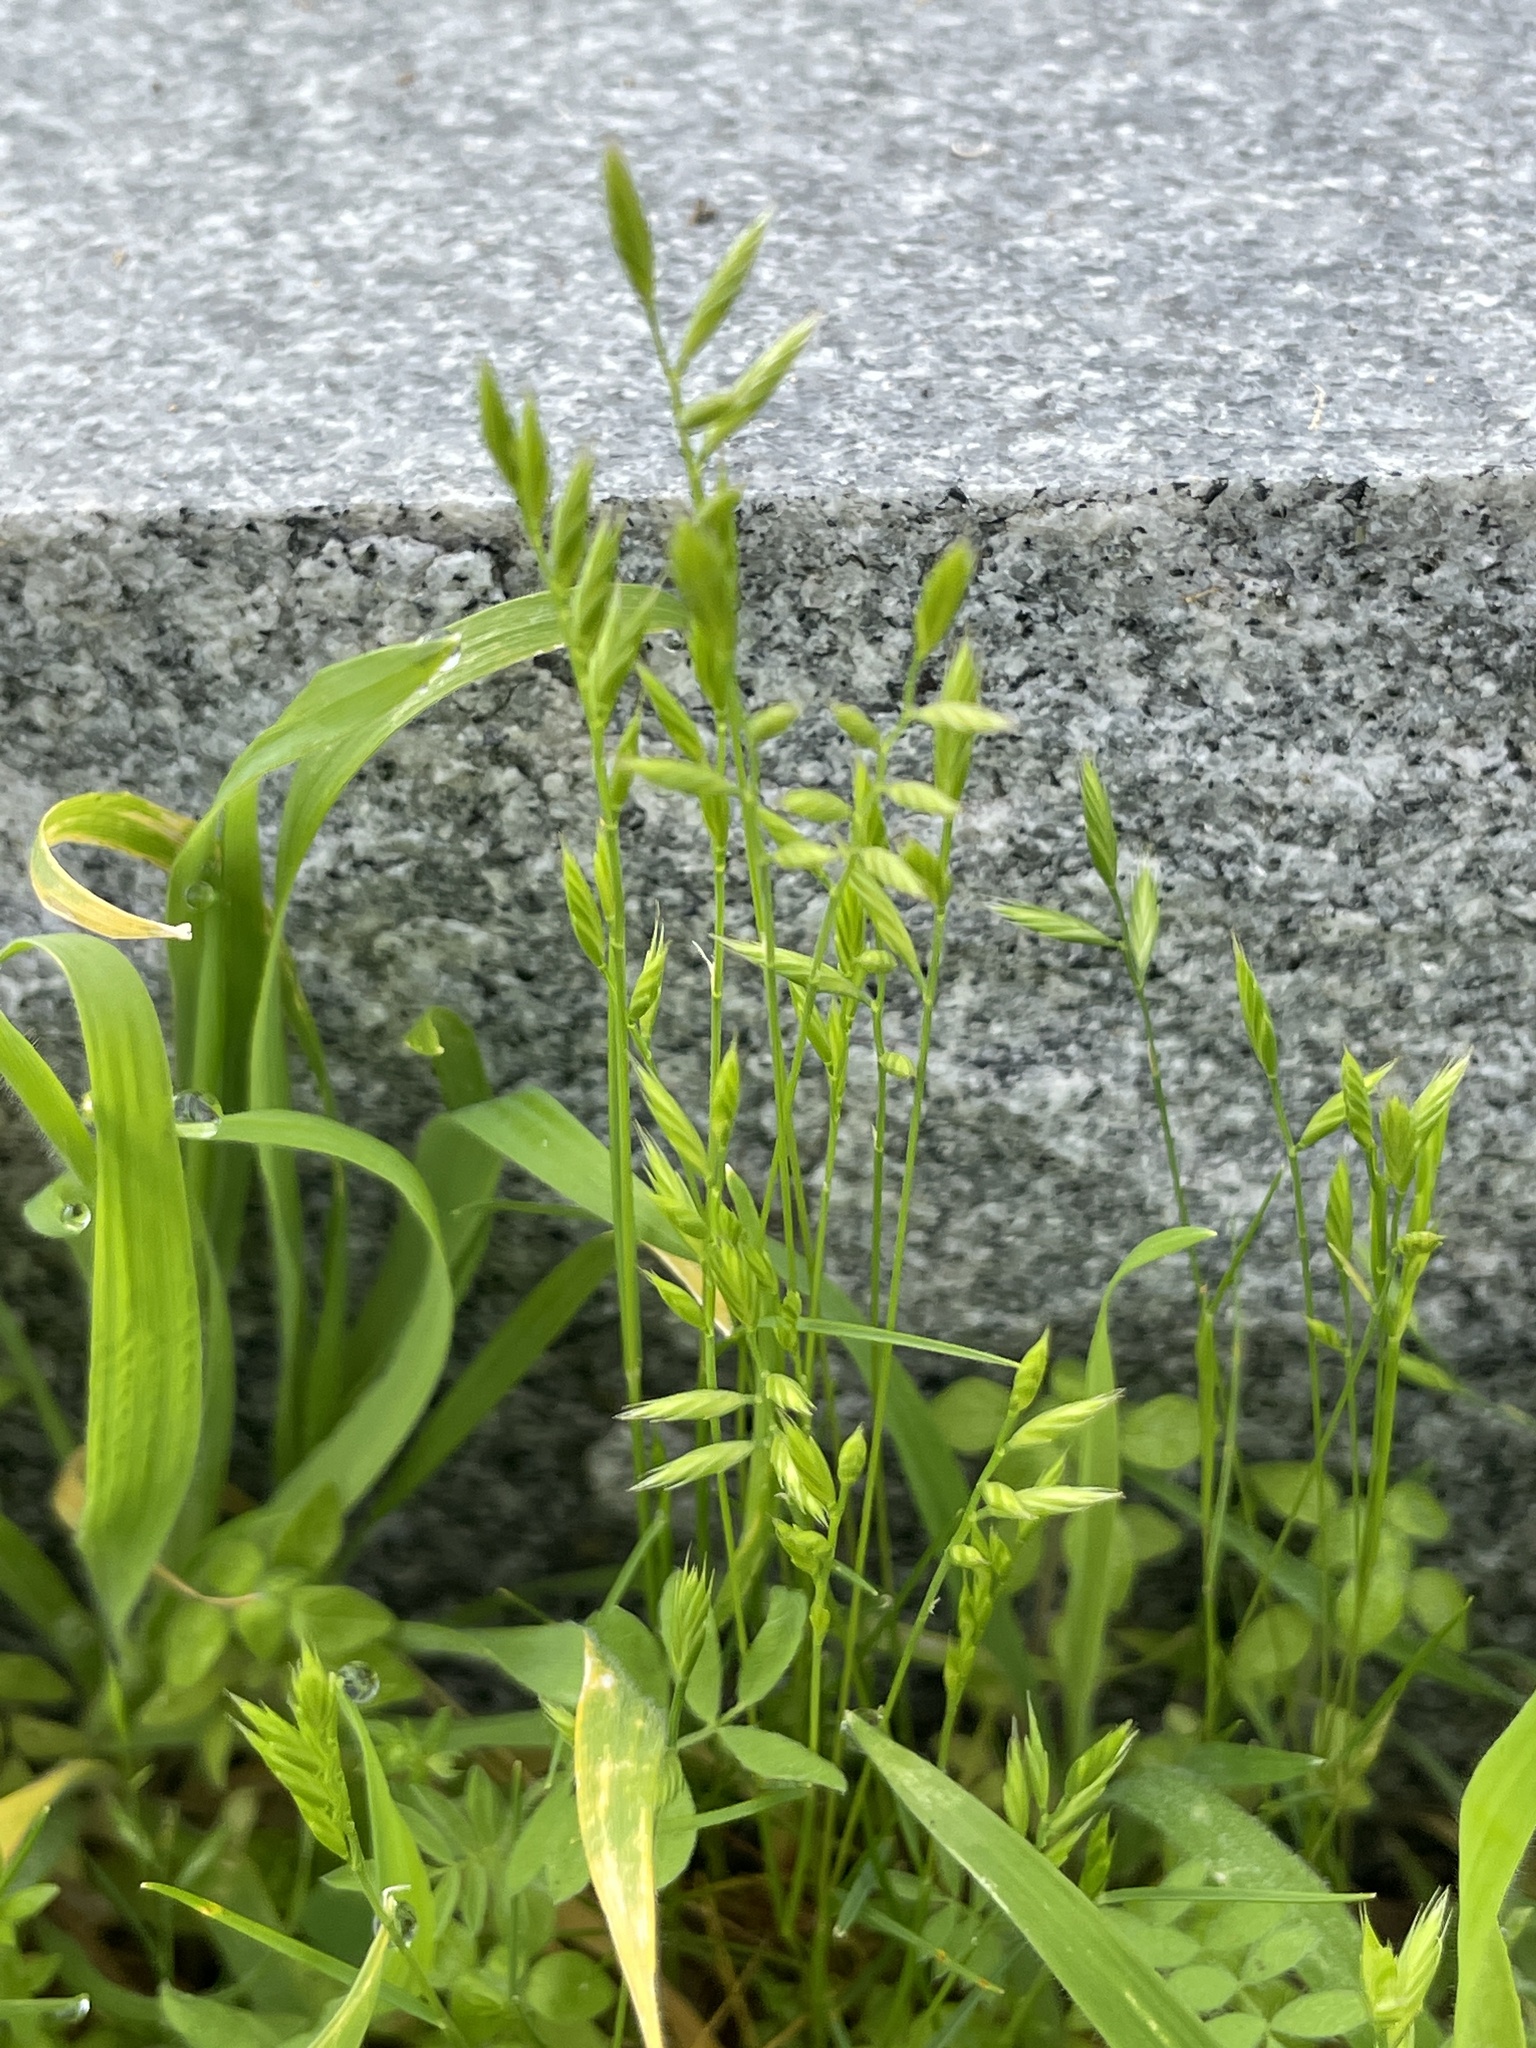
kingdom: Plantae
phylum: Tracheophyta
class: Liliopsida
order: Poales
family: Poaceae
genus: Festuca
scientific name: Festuca octoflora
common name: Sixweeks grass
